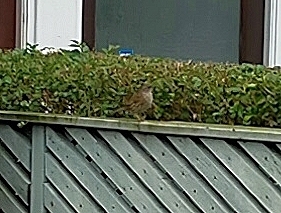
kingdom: Animalia
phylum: Chordata
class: Aves
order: Passeriformes
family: Prunellidae
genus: Prunella
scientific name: Prunella modularis
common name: Dunnock
